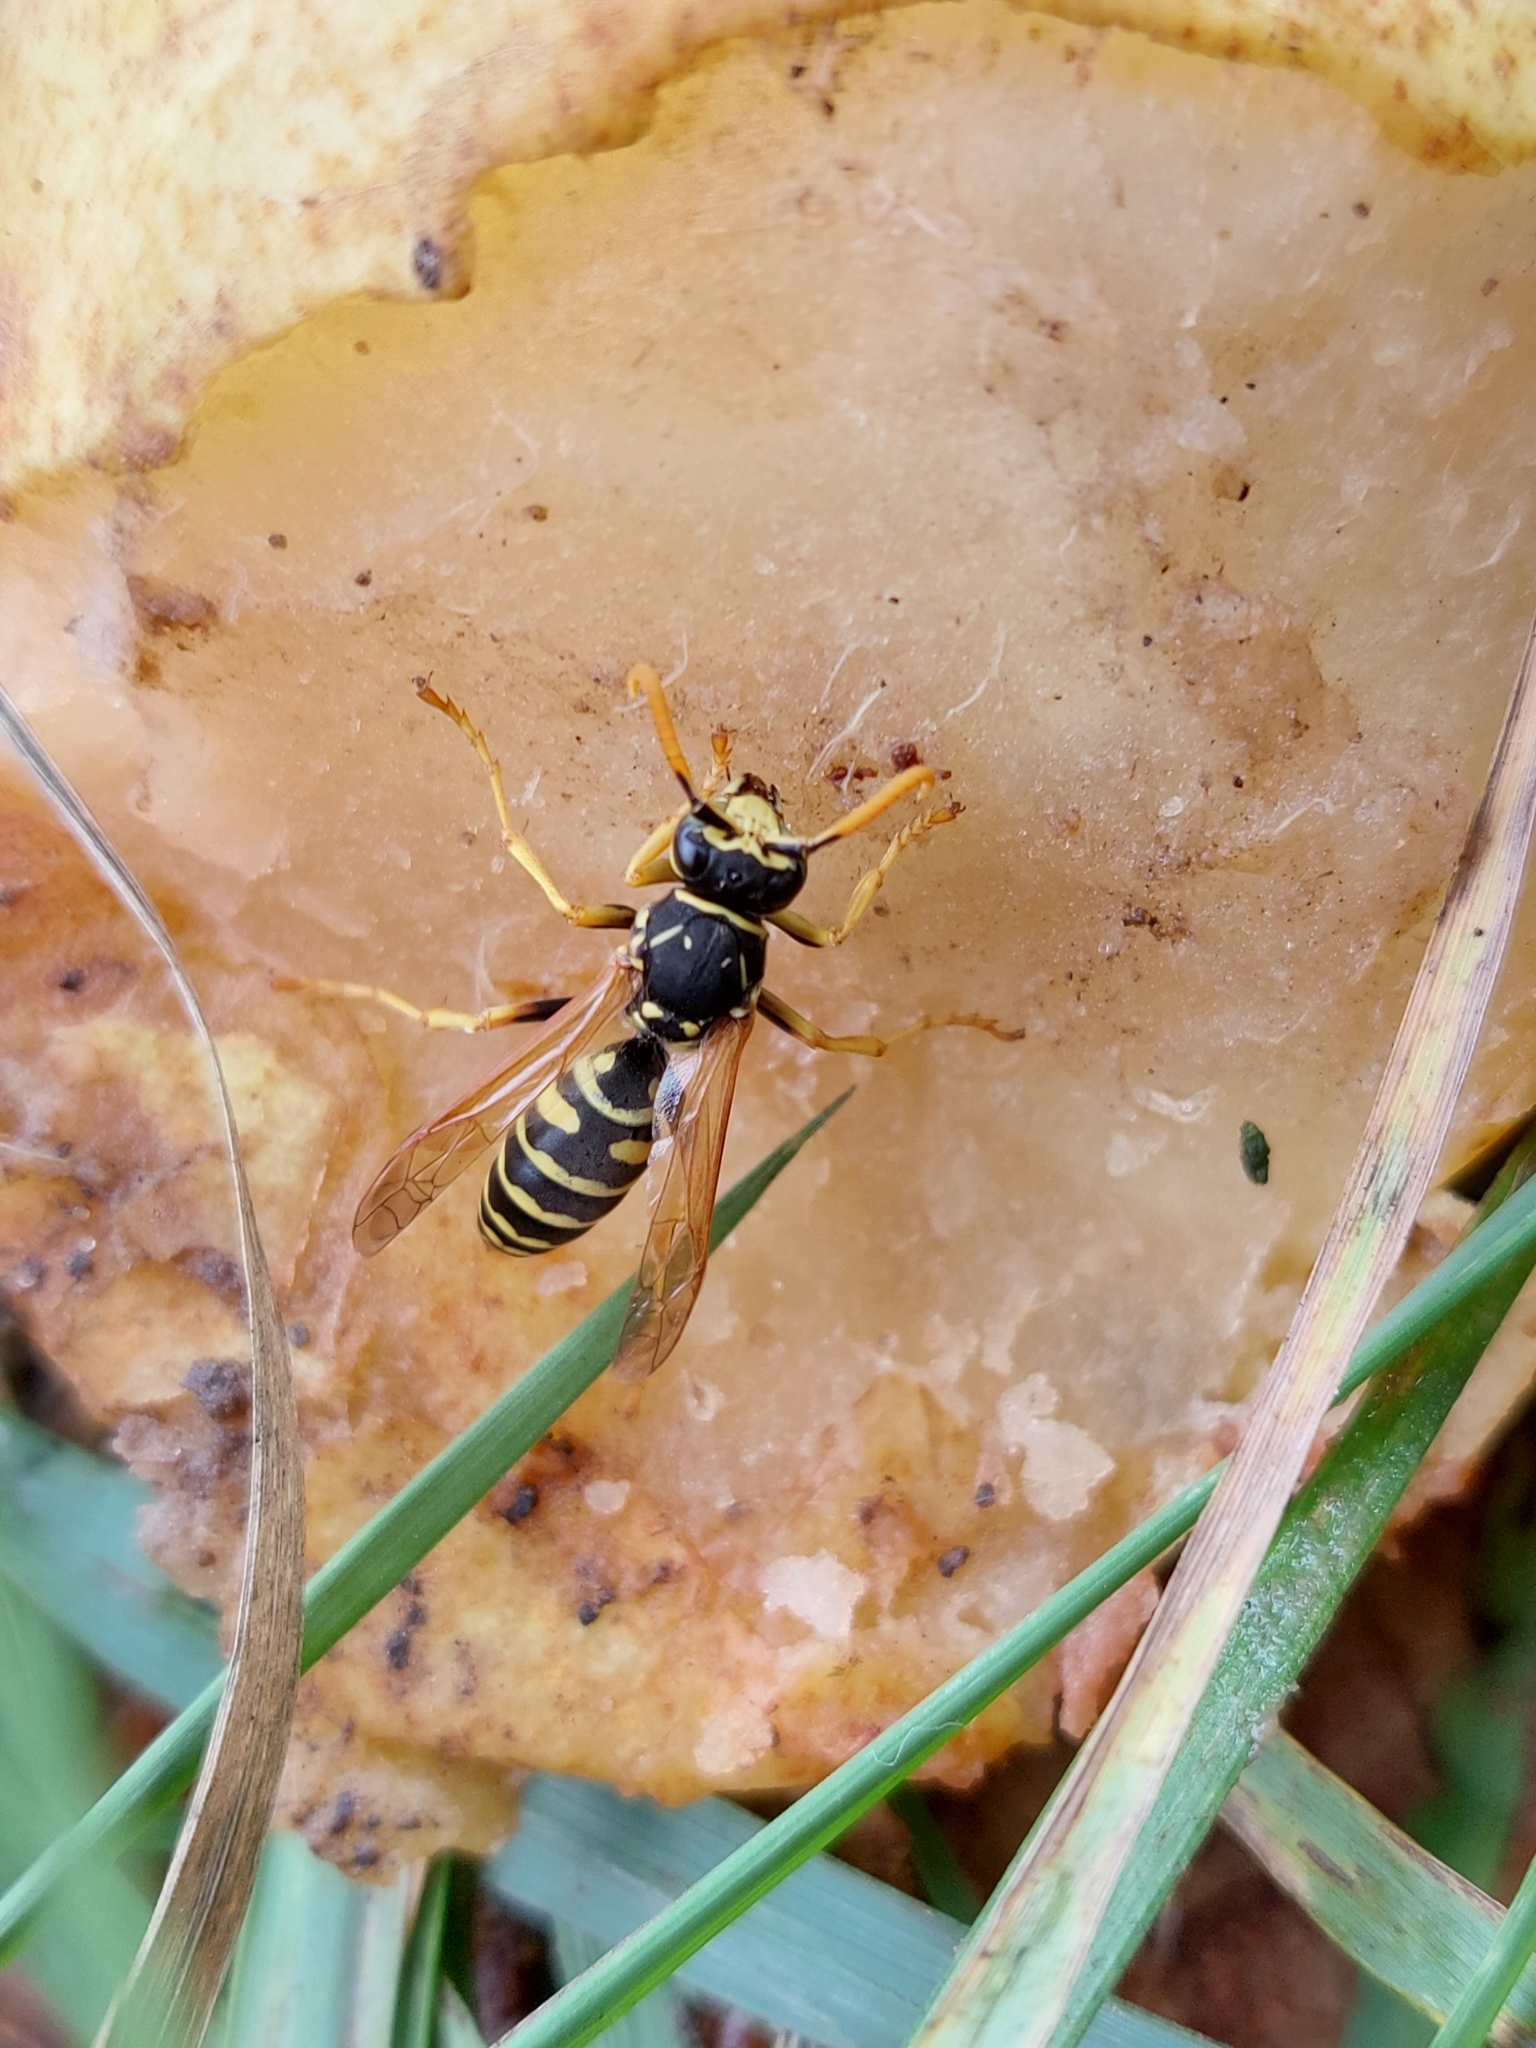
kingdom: Animalia
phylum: Arthropoda
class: Insecta
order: Hymenoptera
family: Eumenidae
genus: Polistes
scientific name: Polistes dominula
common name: Paper wasp
